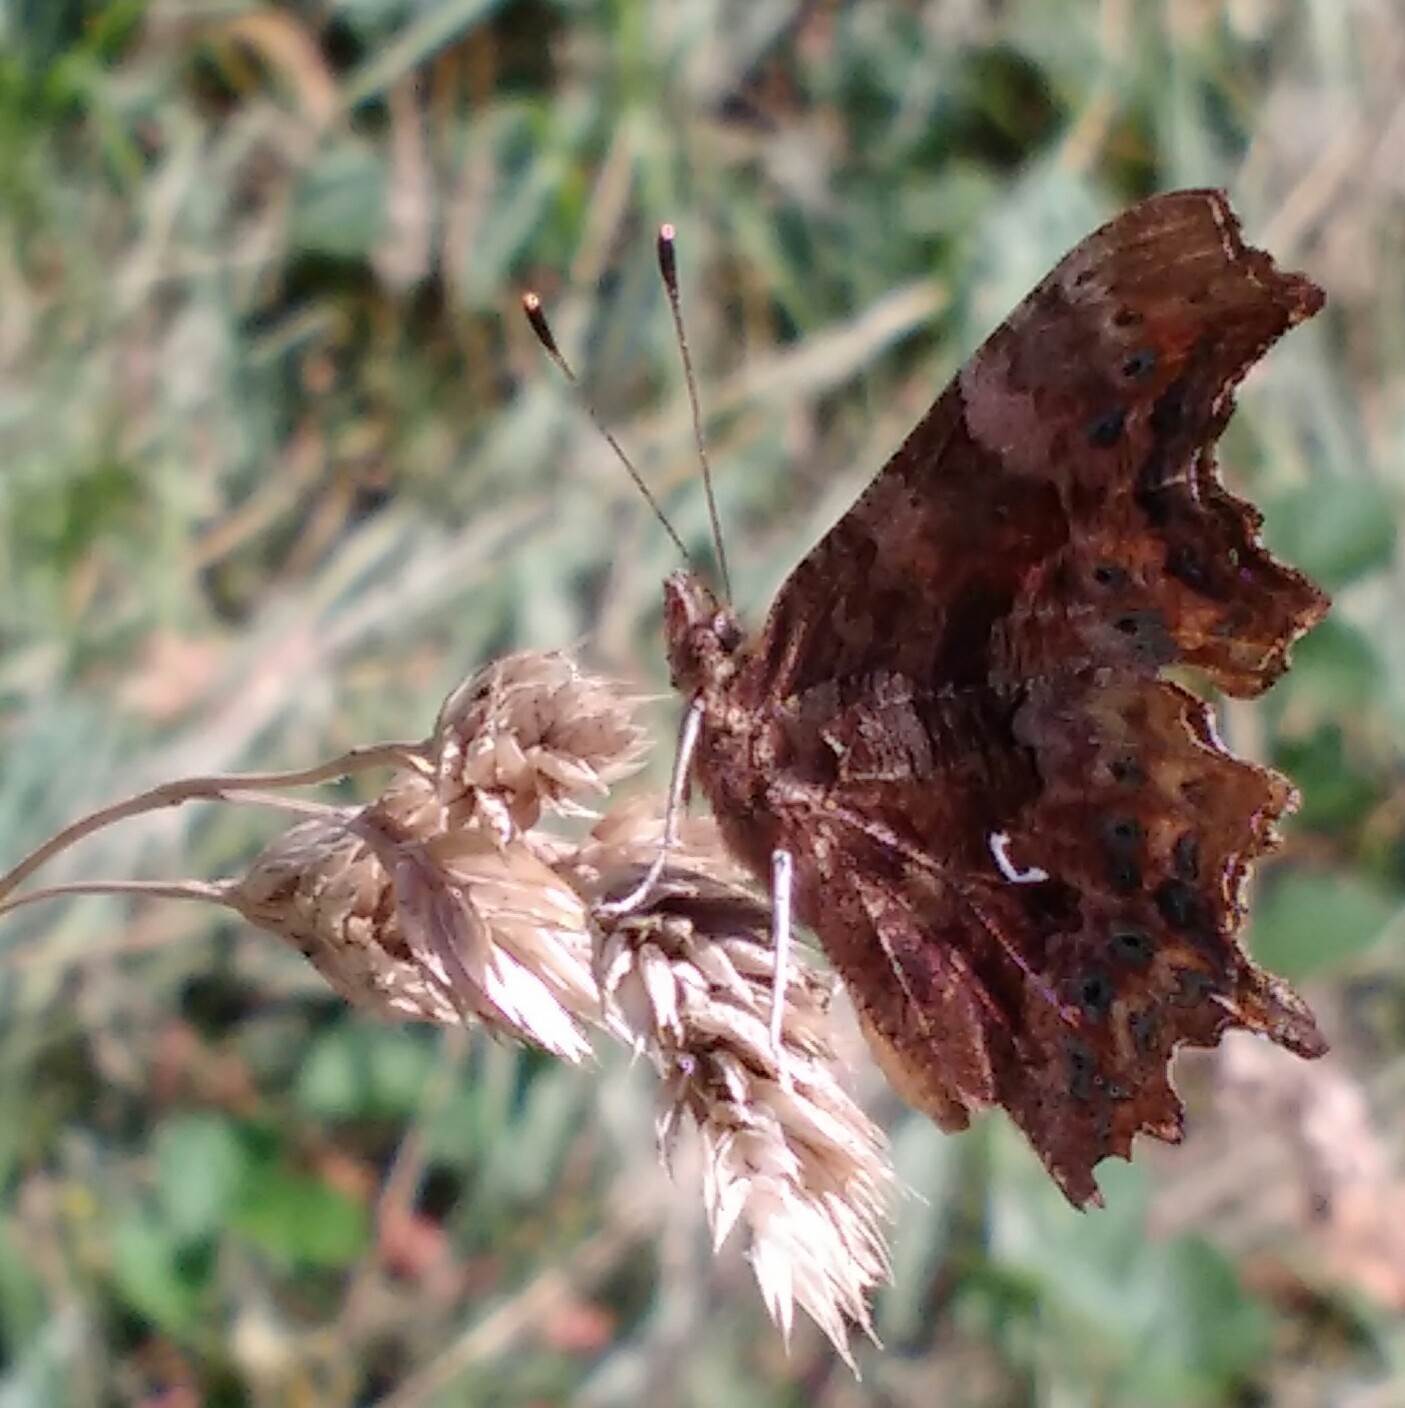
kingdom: Animalia
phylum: Arthropoda
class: Insecta
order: Lepidoptera
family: Nymphalidae
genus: Polygonia
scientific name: Polygonia c-album
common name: Comma
